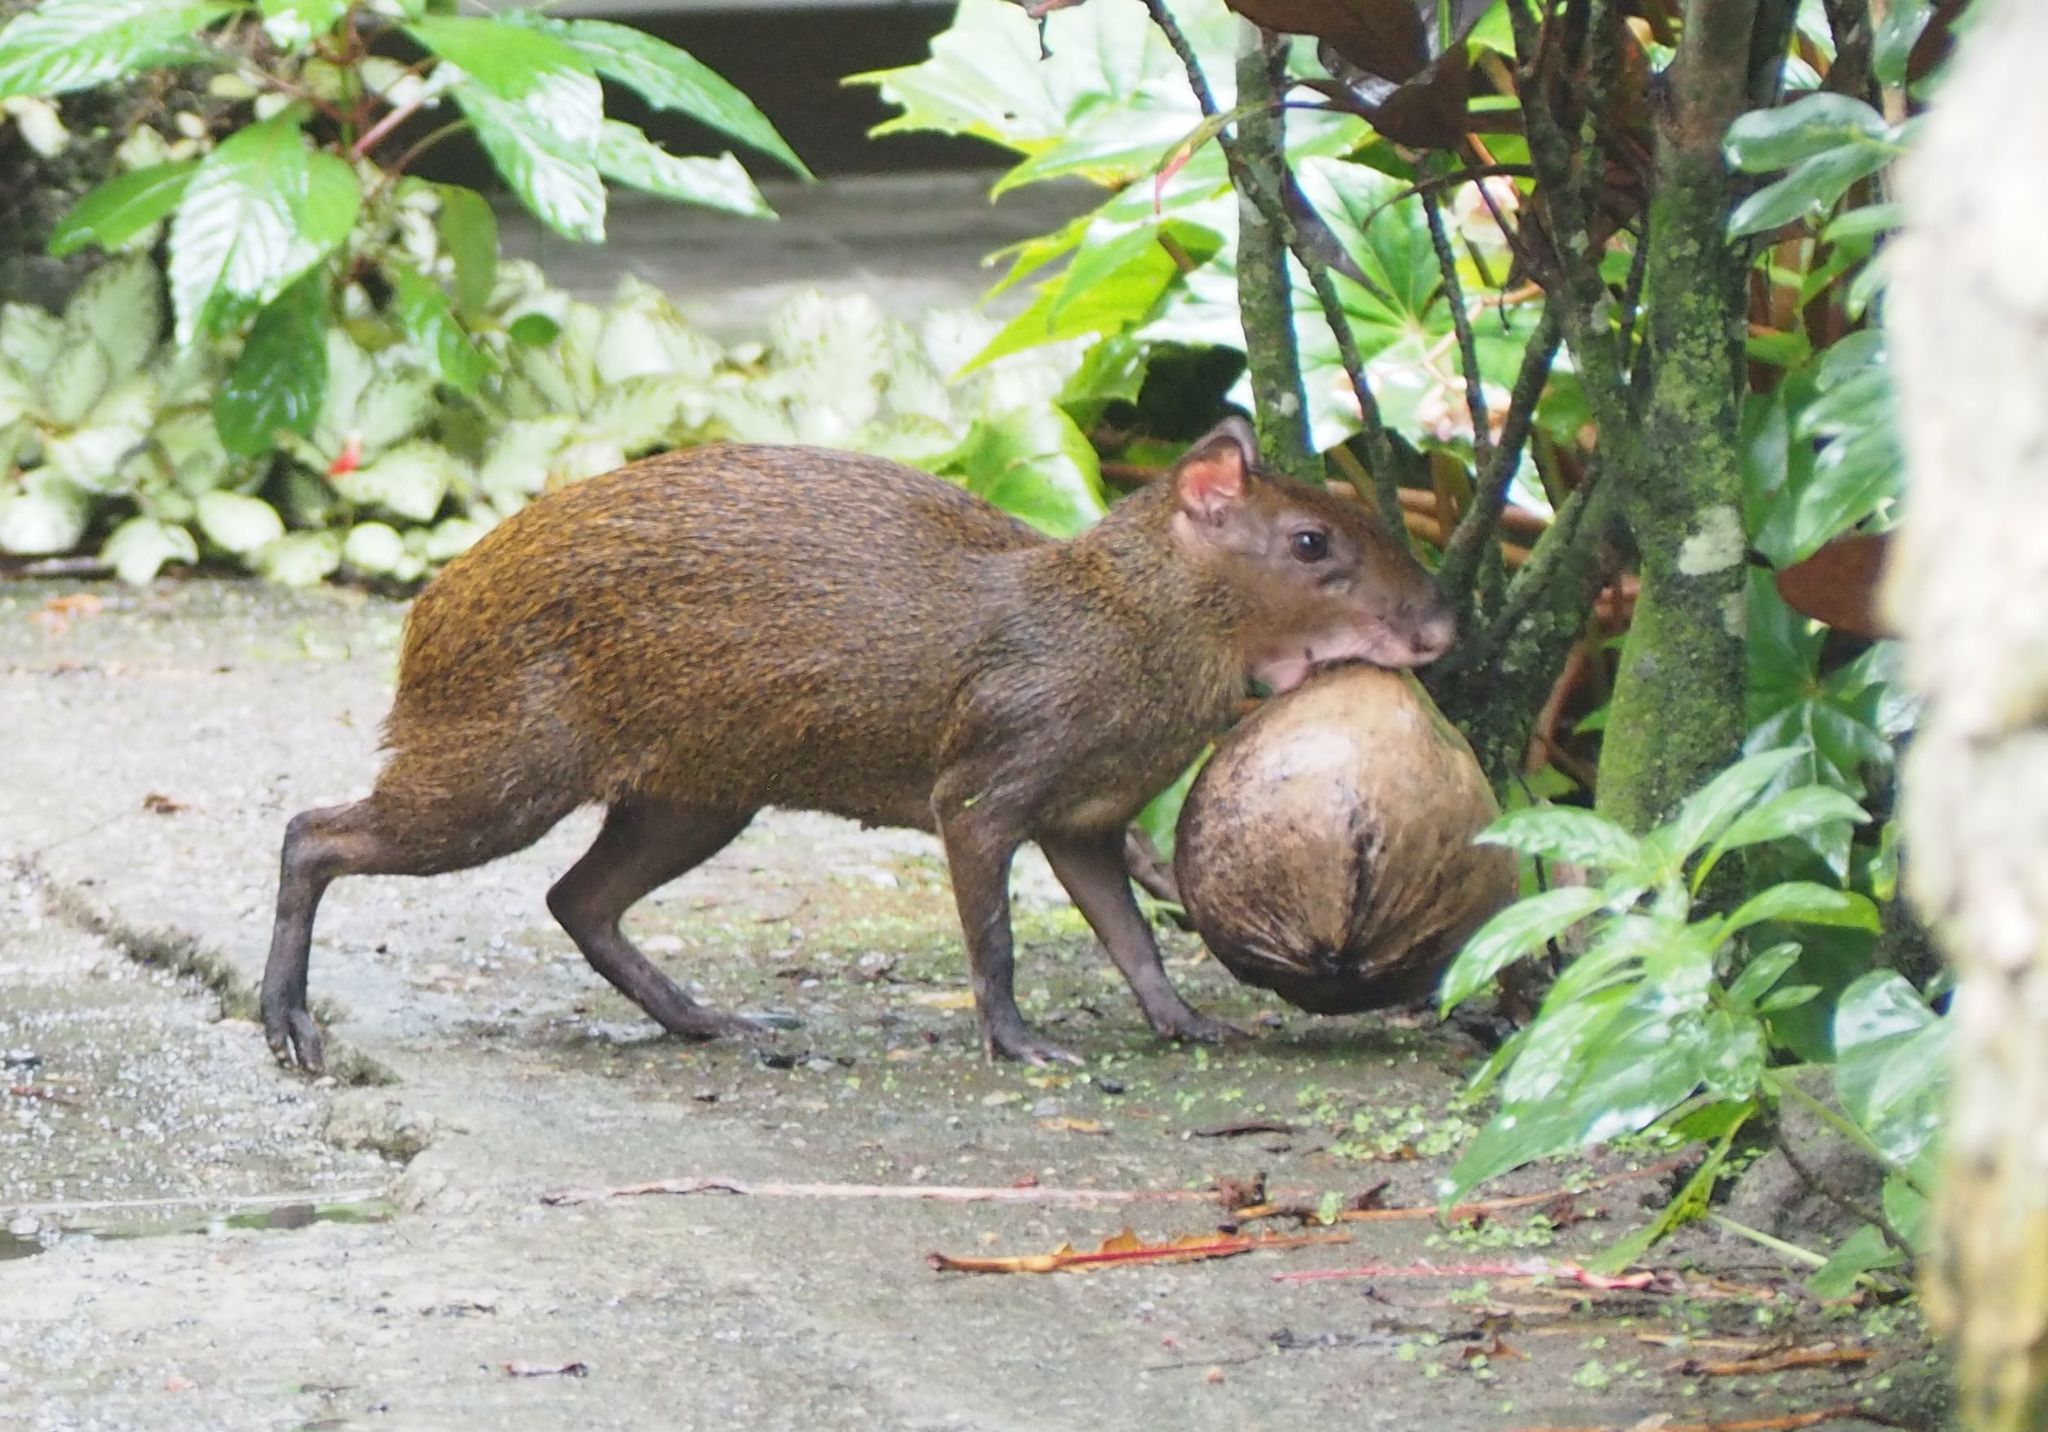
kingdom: Animalia
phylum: Chordata
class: Mammalia
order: Rodentia
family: Dasyproctidae
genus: Dasyprocta
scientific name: Dasyprocta punctata
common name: Central american agouti
